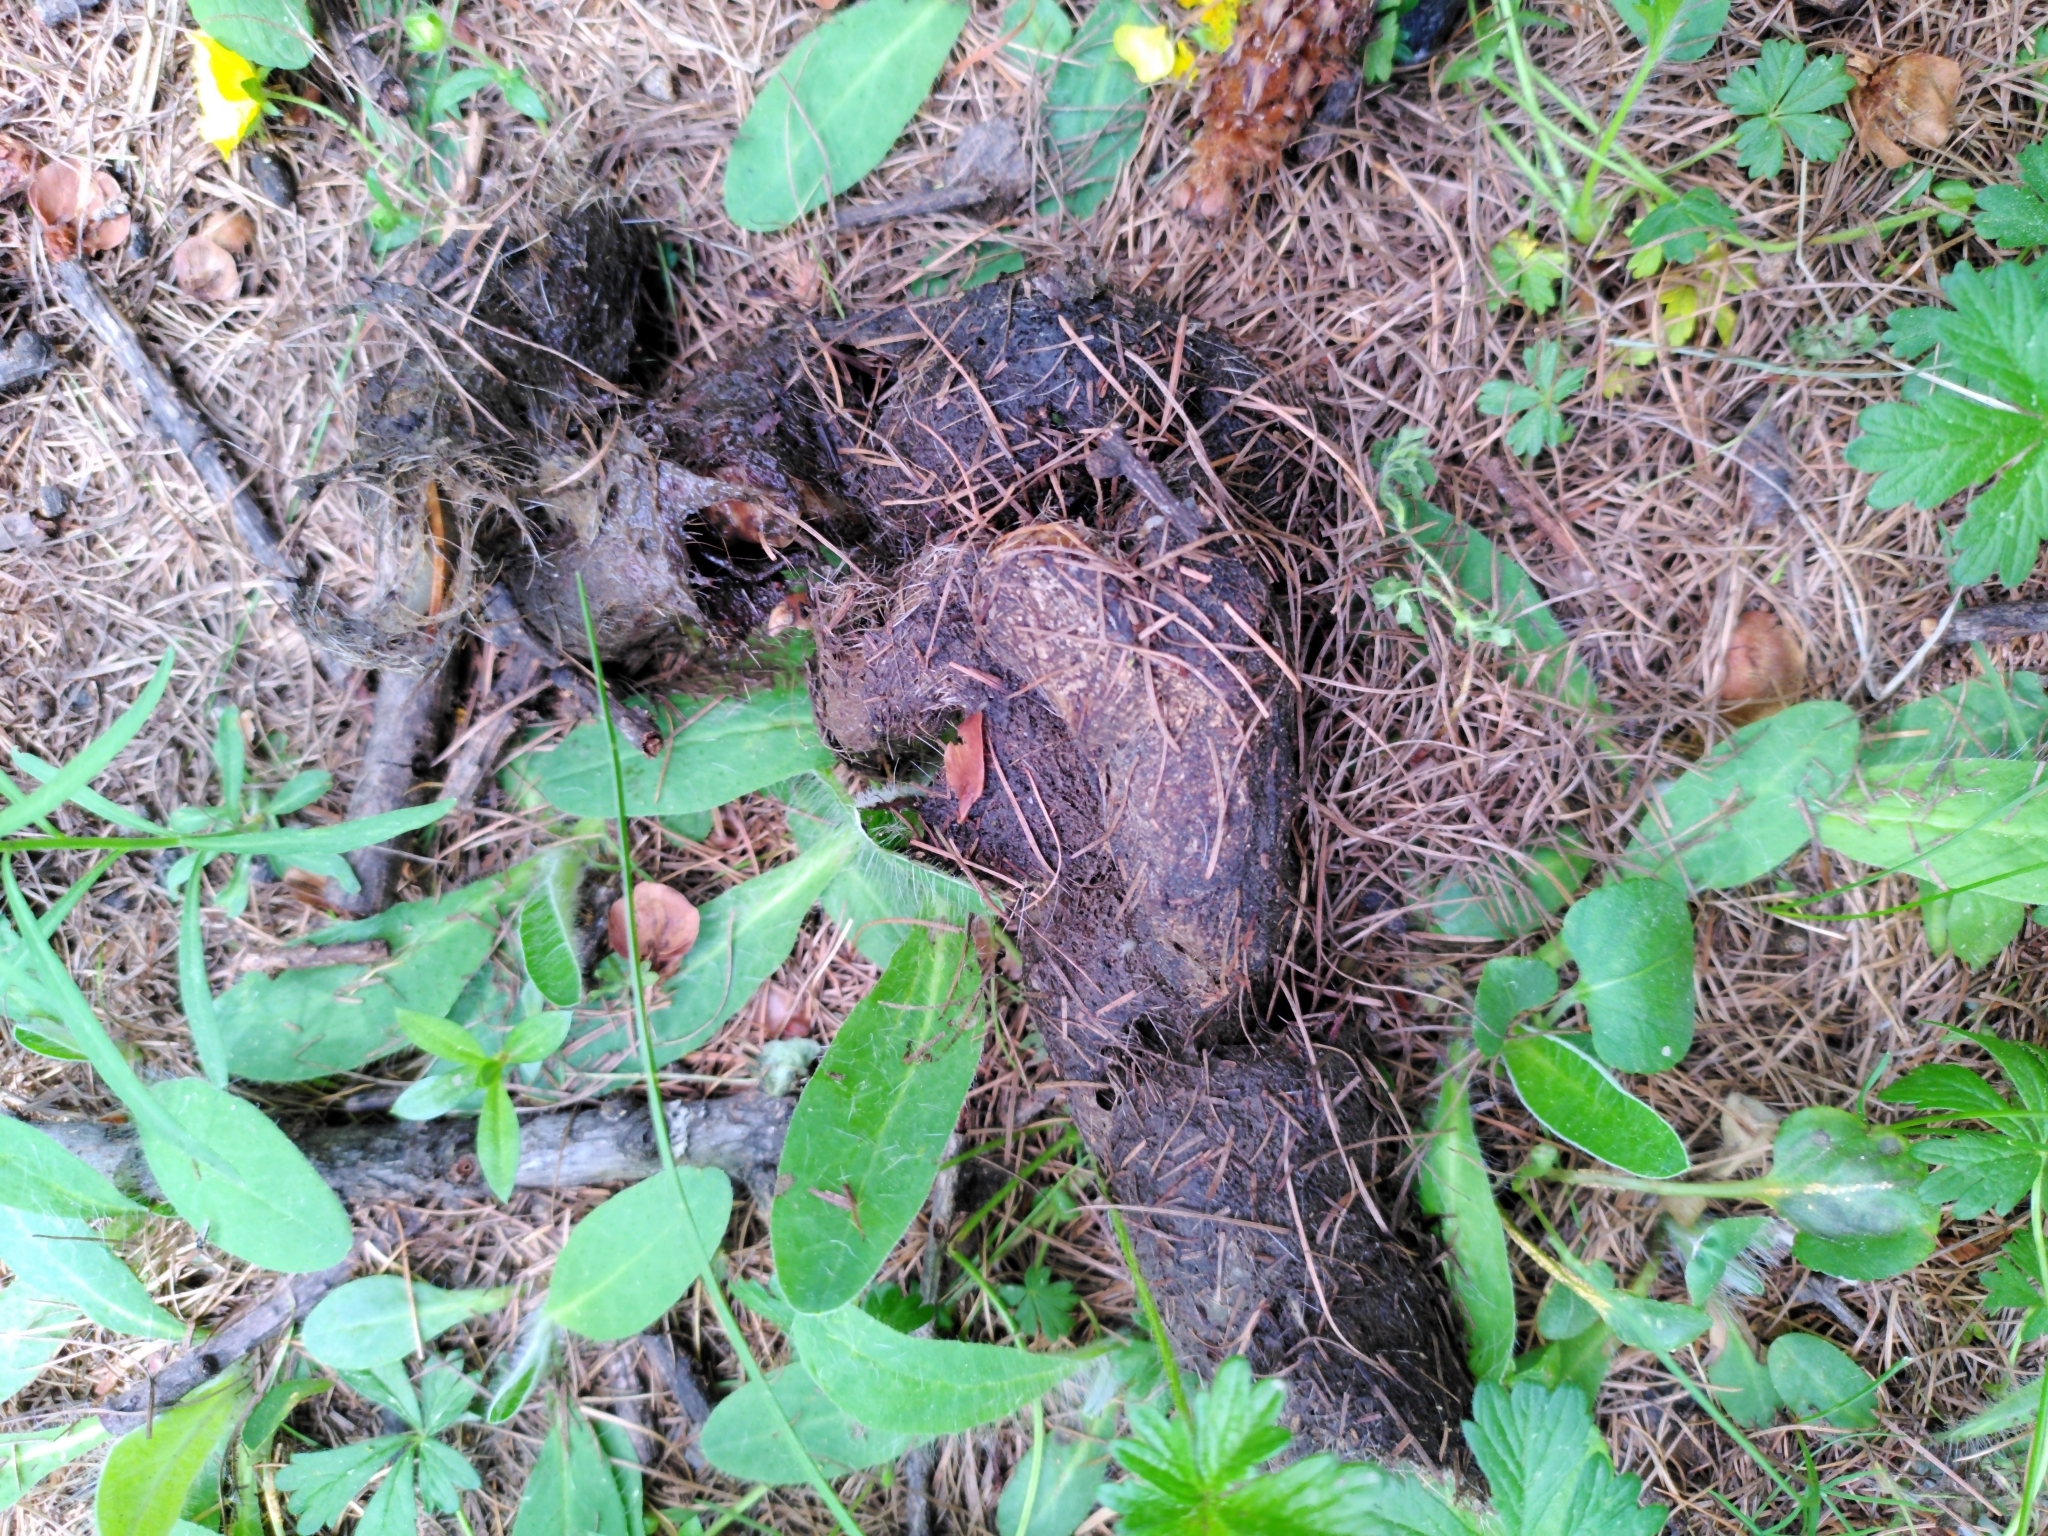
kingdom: Animalia
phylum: Chordata
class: Mammalia
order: Carnivora
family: Canidae
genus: Canis
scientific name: Canis lupus
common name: Gray wolf
